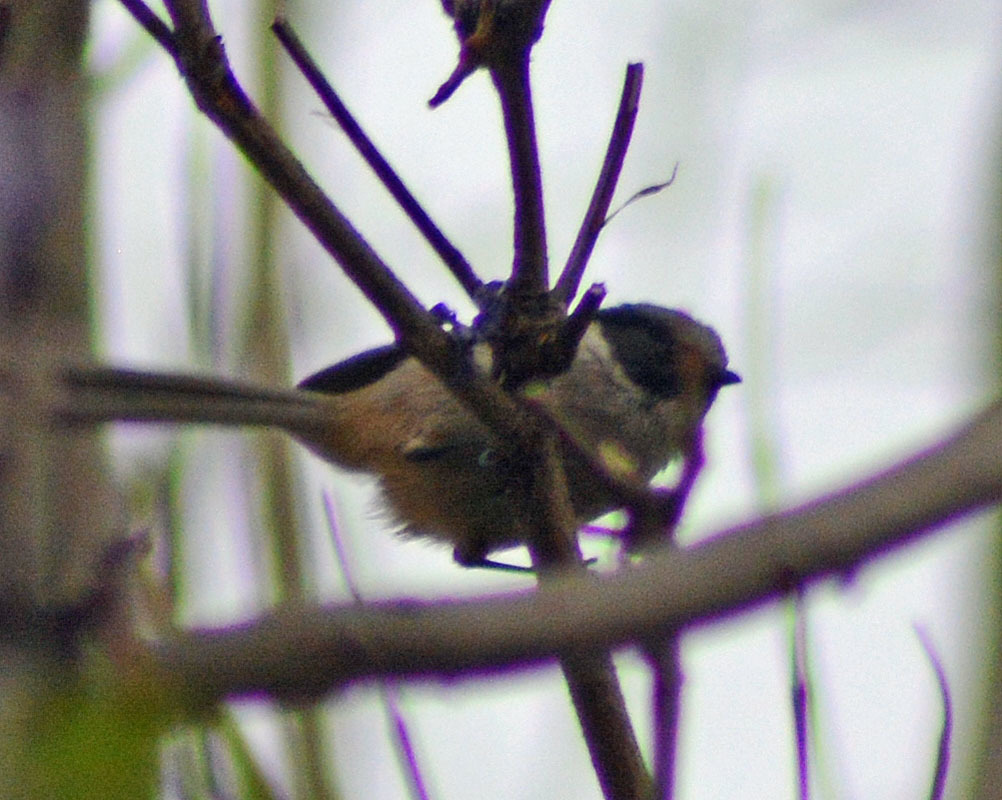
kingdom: Animalia
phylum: Chordata
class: Aves
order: Passeriformes
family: Aegithalidae
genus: Psaltriparus
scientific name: Psaltriparus minimus
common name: American bushtit
